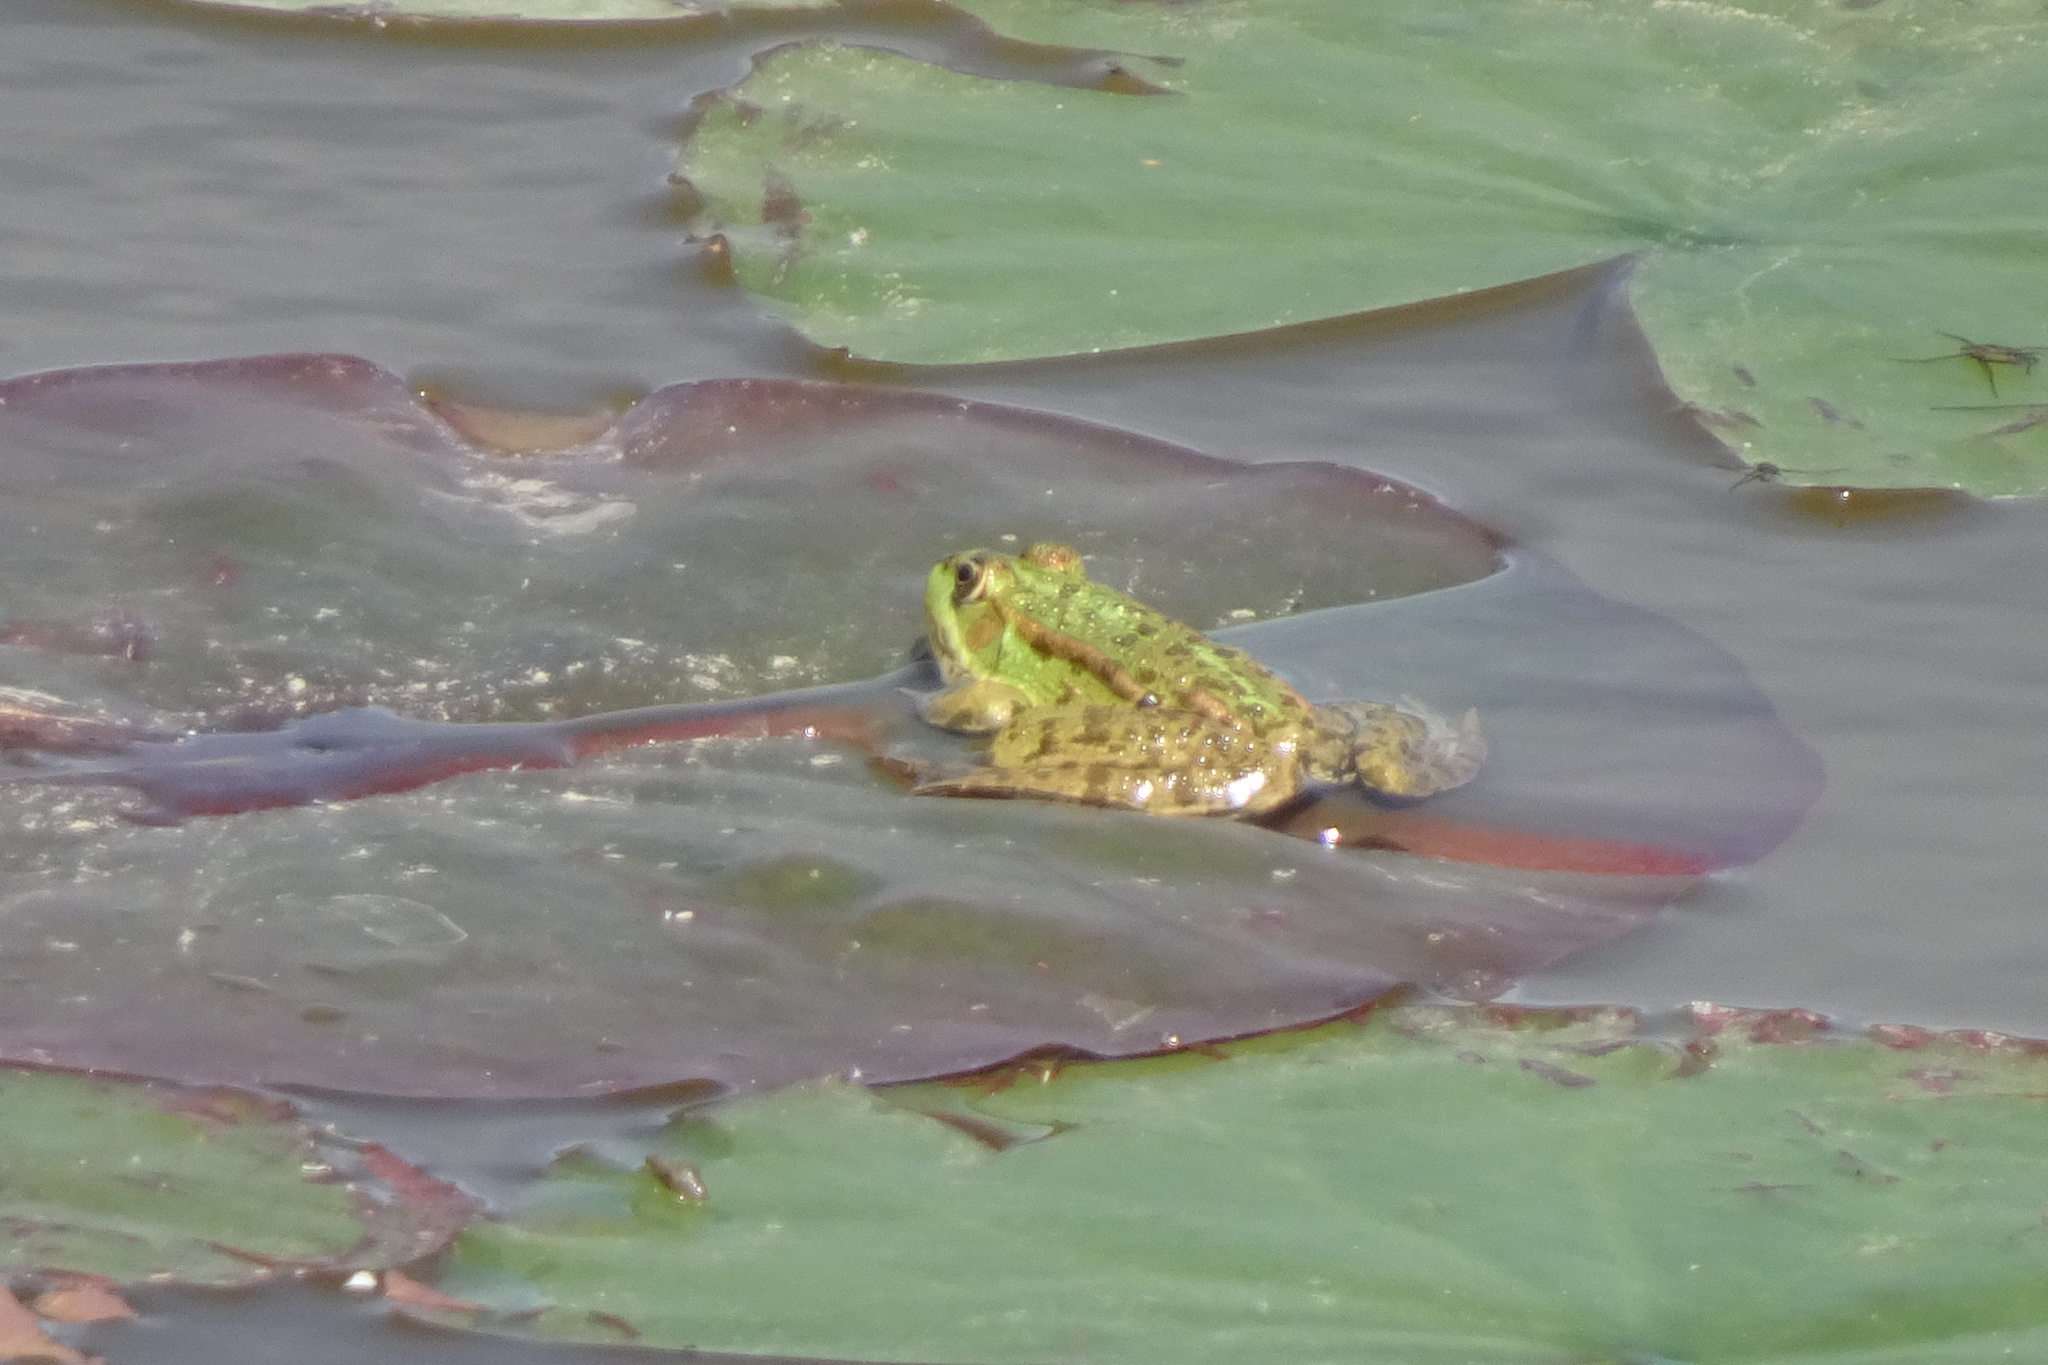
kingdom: Animalia
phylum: Chordata
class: Amphibia
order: Anura
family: Ranidae
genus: Pelophylax
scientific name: Pelophylax
